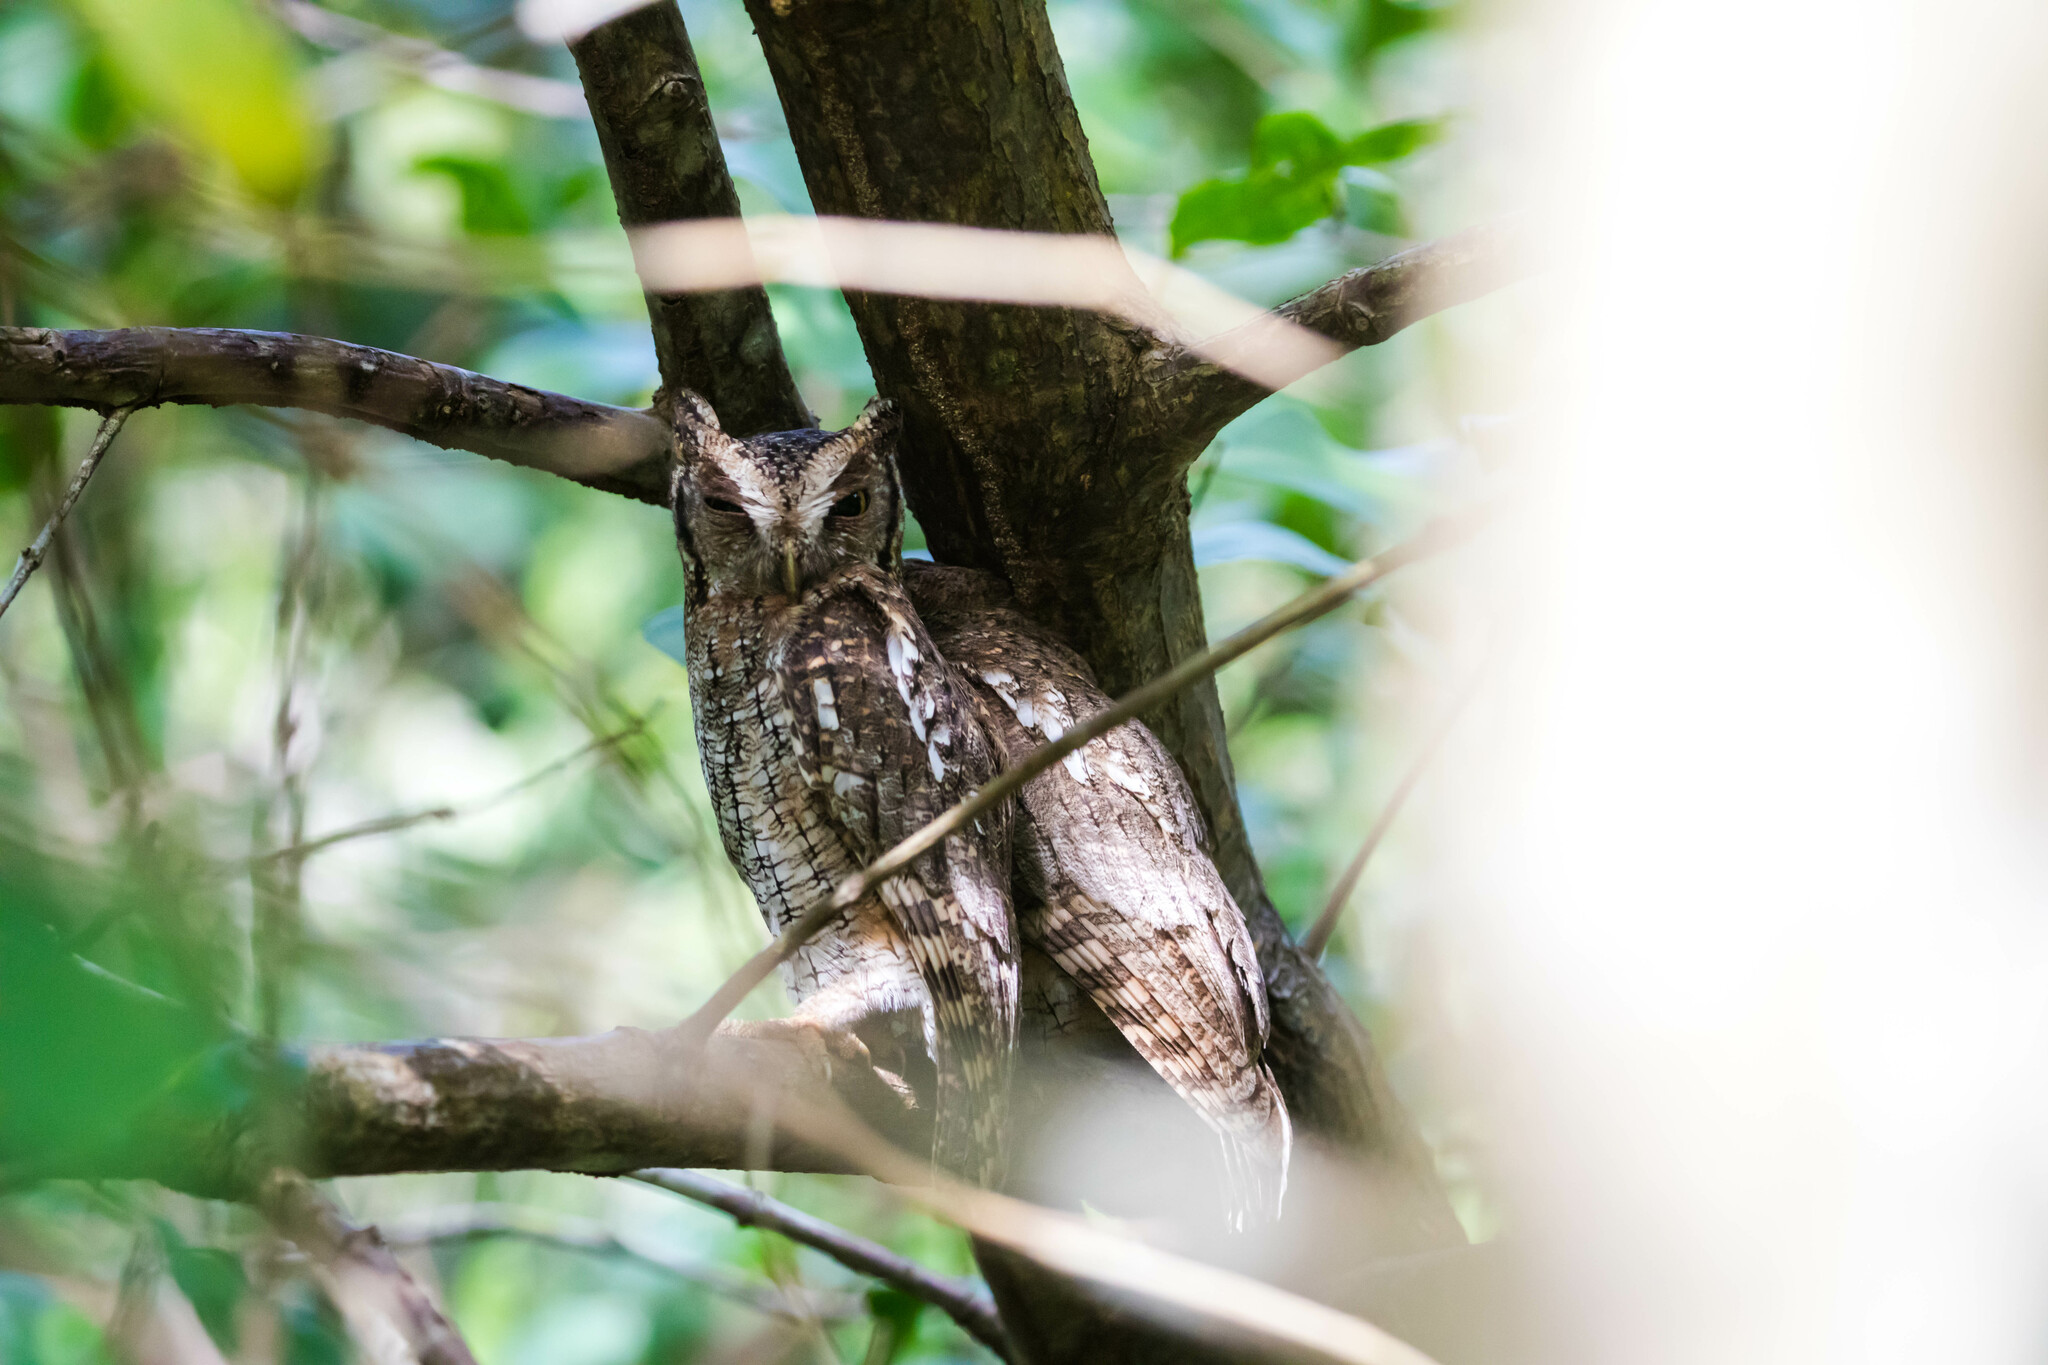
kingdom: Animalia
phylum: Chordata
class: Aves
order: Strigiformes
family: Strigidae
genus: Megascops
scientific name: Megascops choliba
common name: Tropical screech-owl
